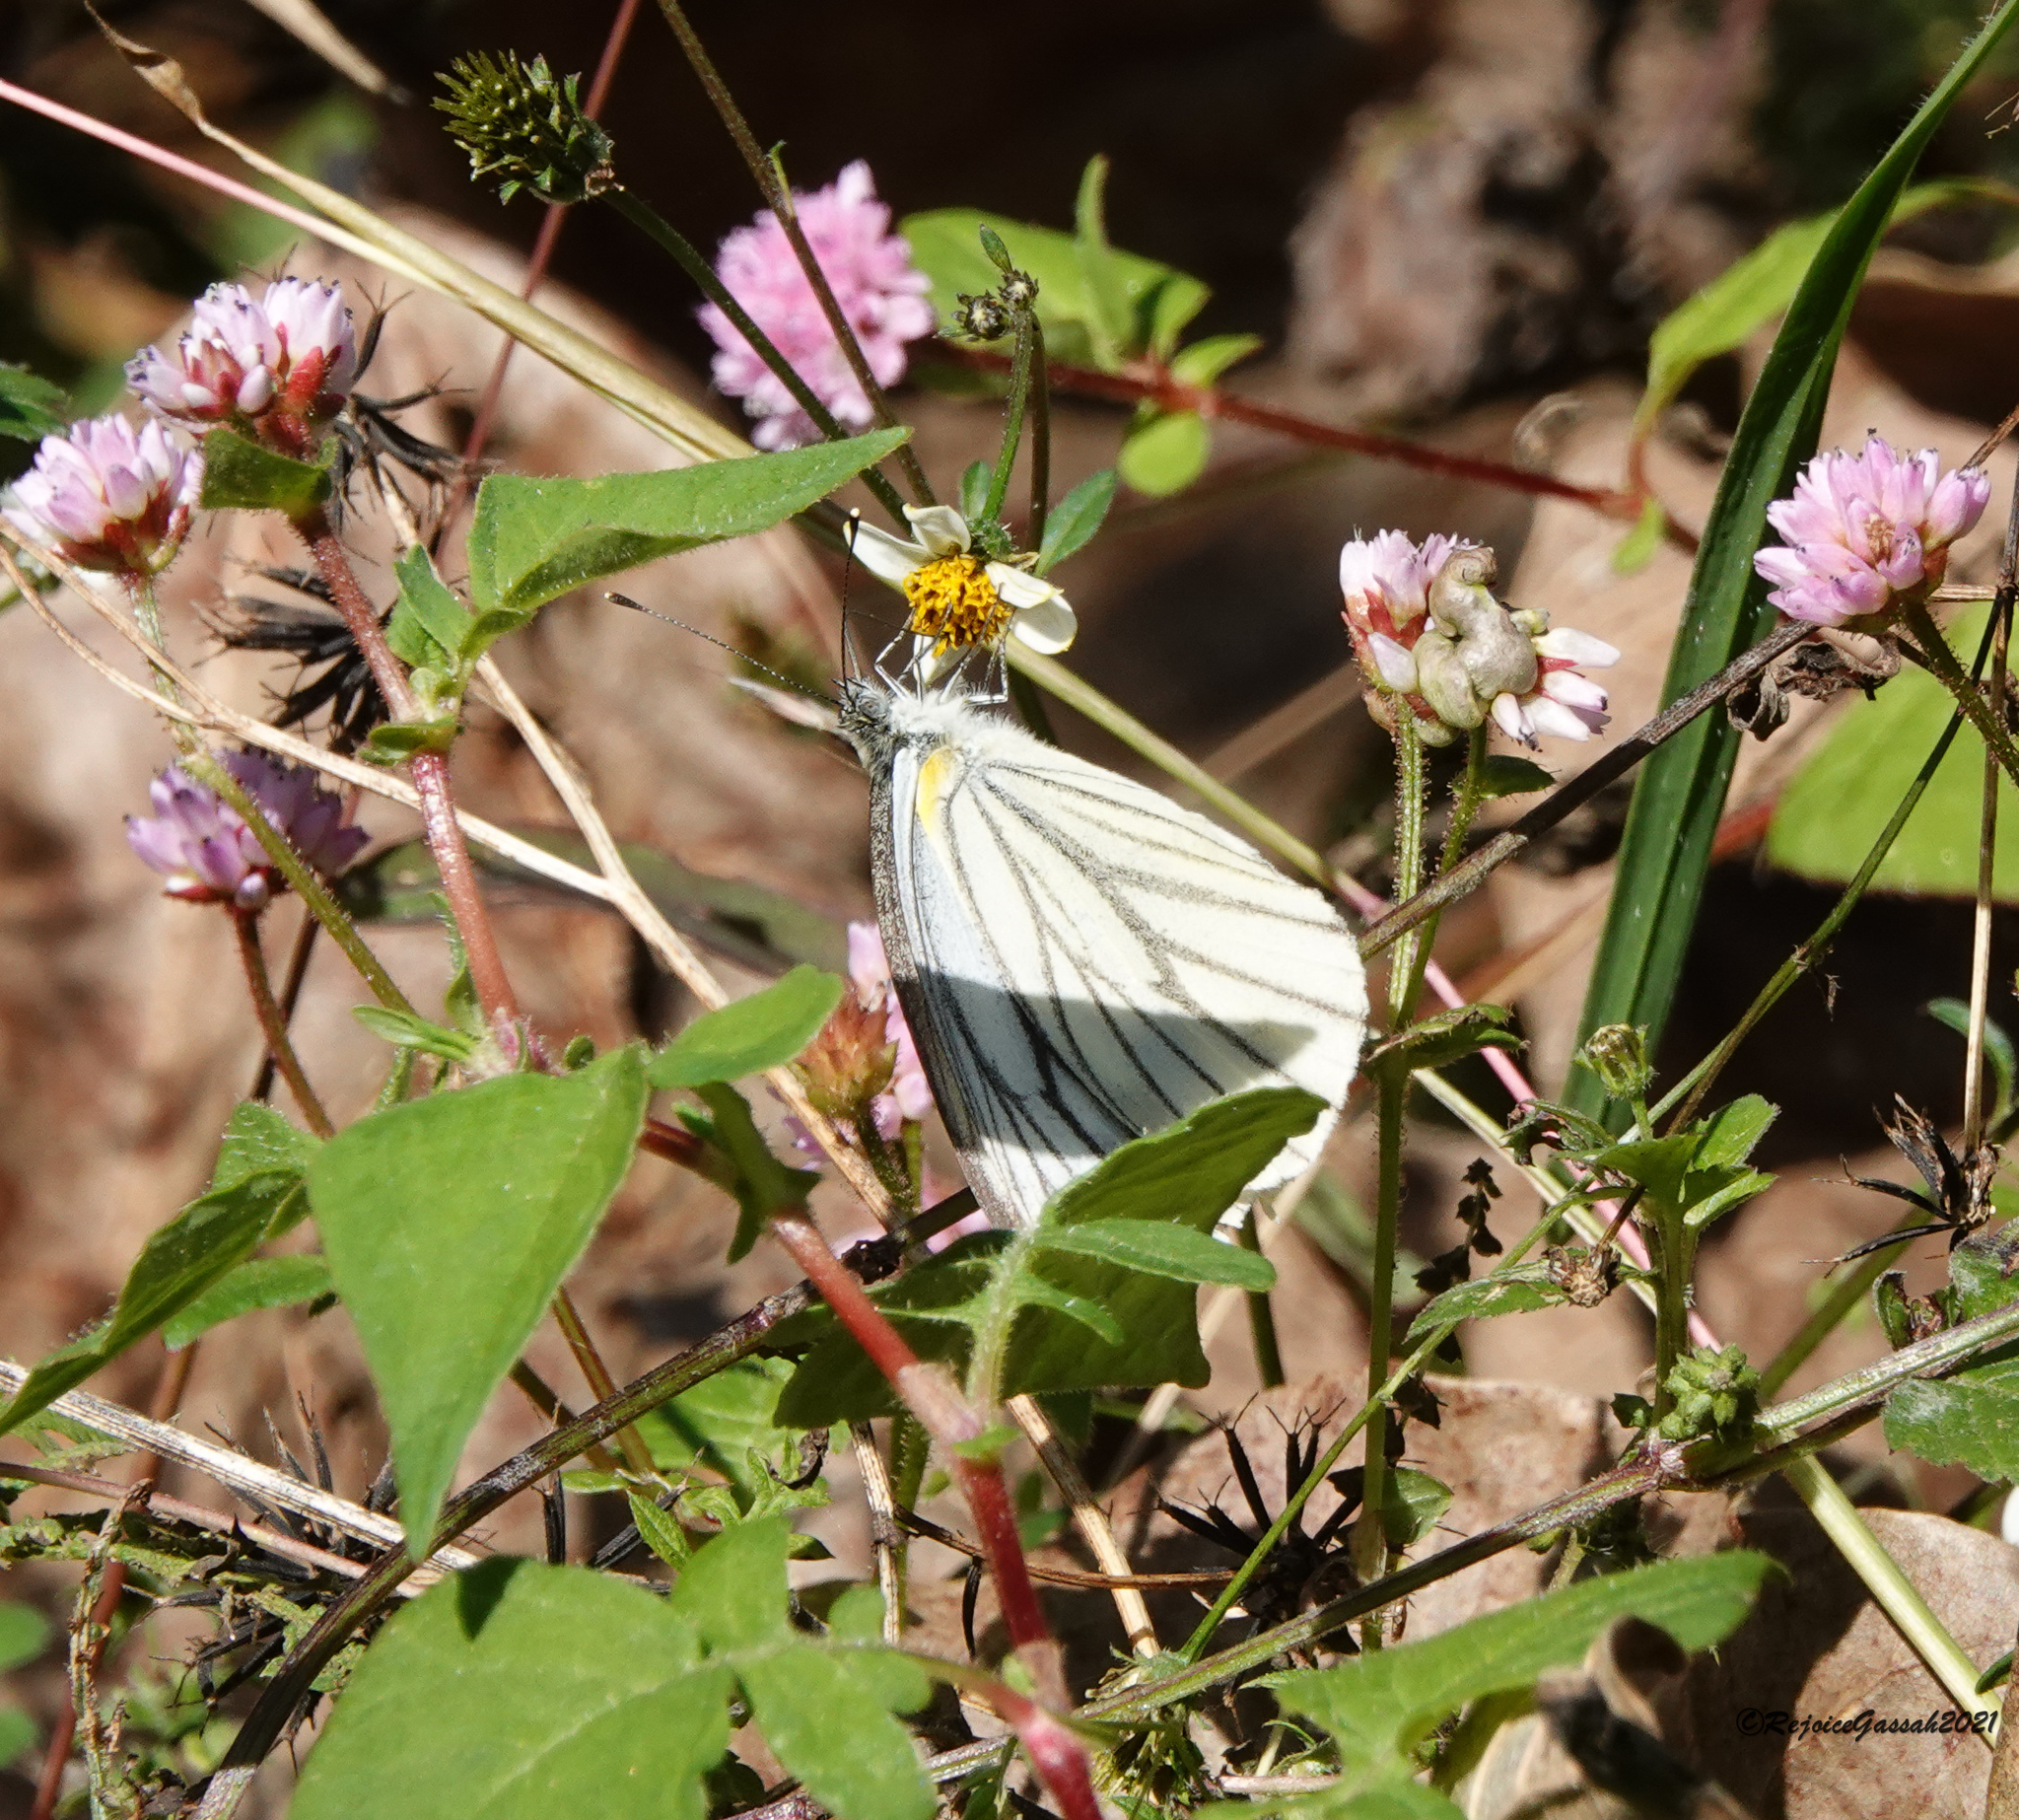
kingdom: Animalia
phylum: Arthropoda
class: Insecta
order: Lepidoptera
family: Pieridae
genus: Pieris
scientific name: Pieris melete
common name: Asian green-veined white
